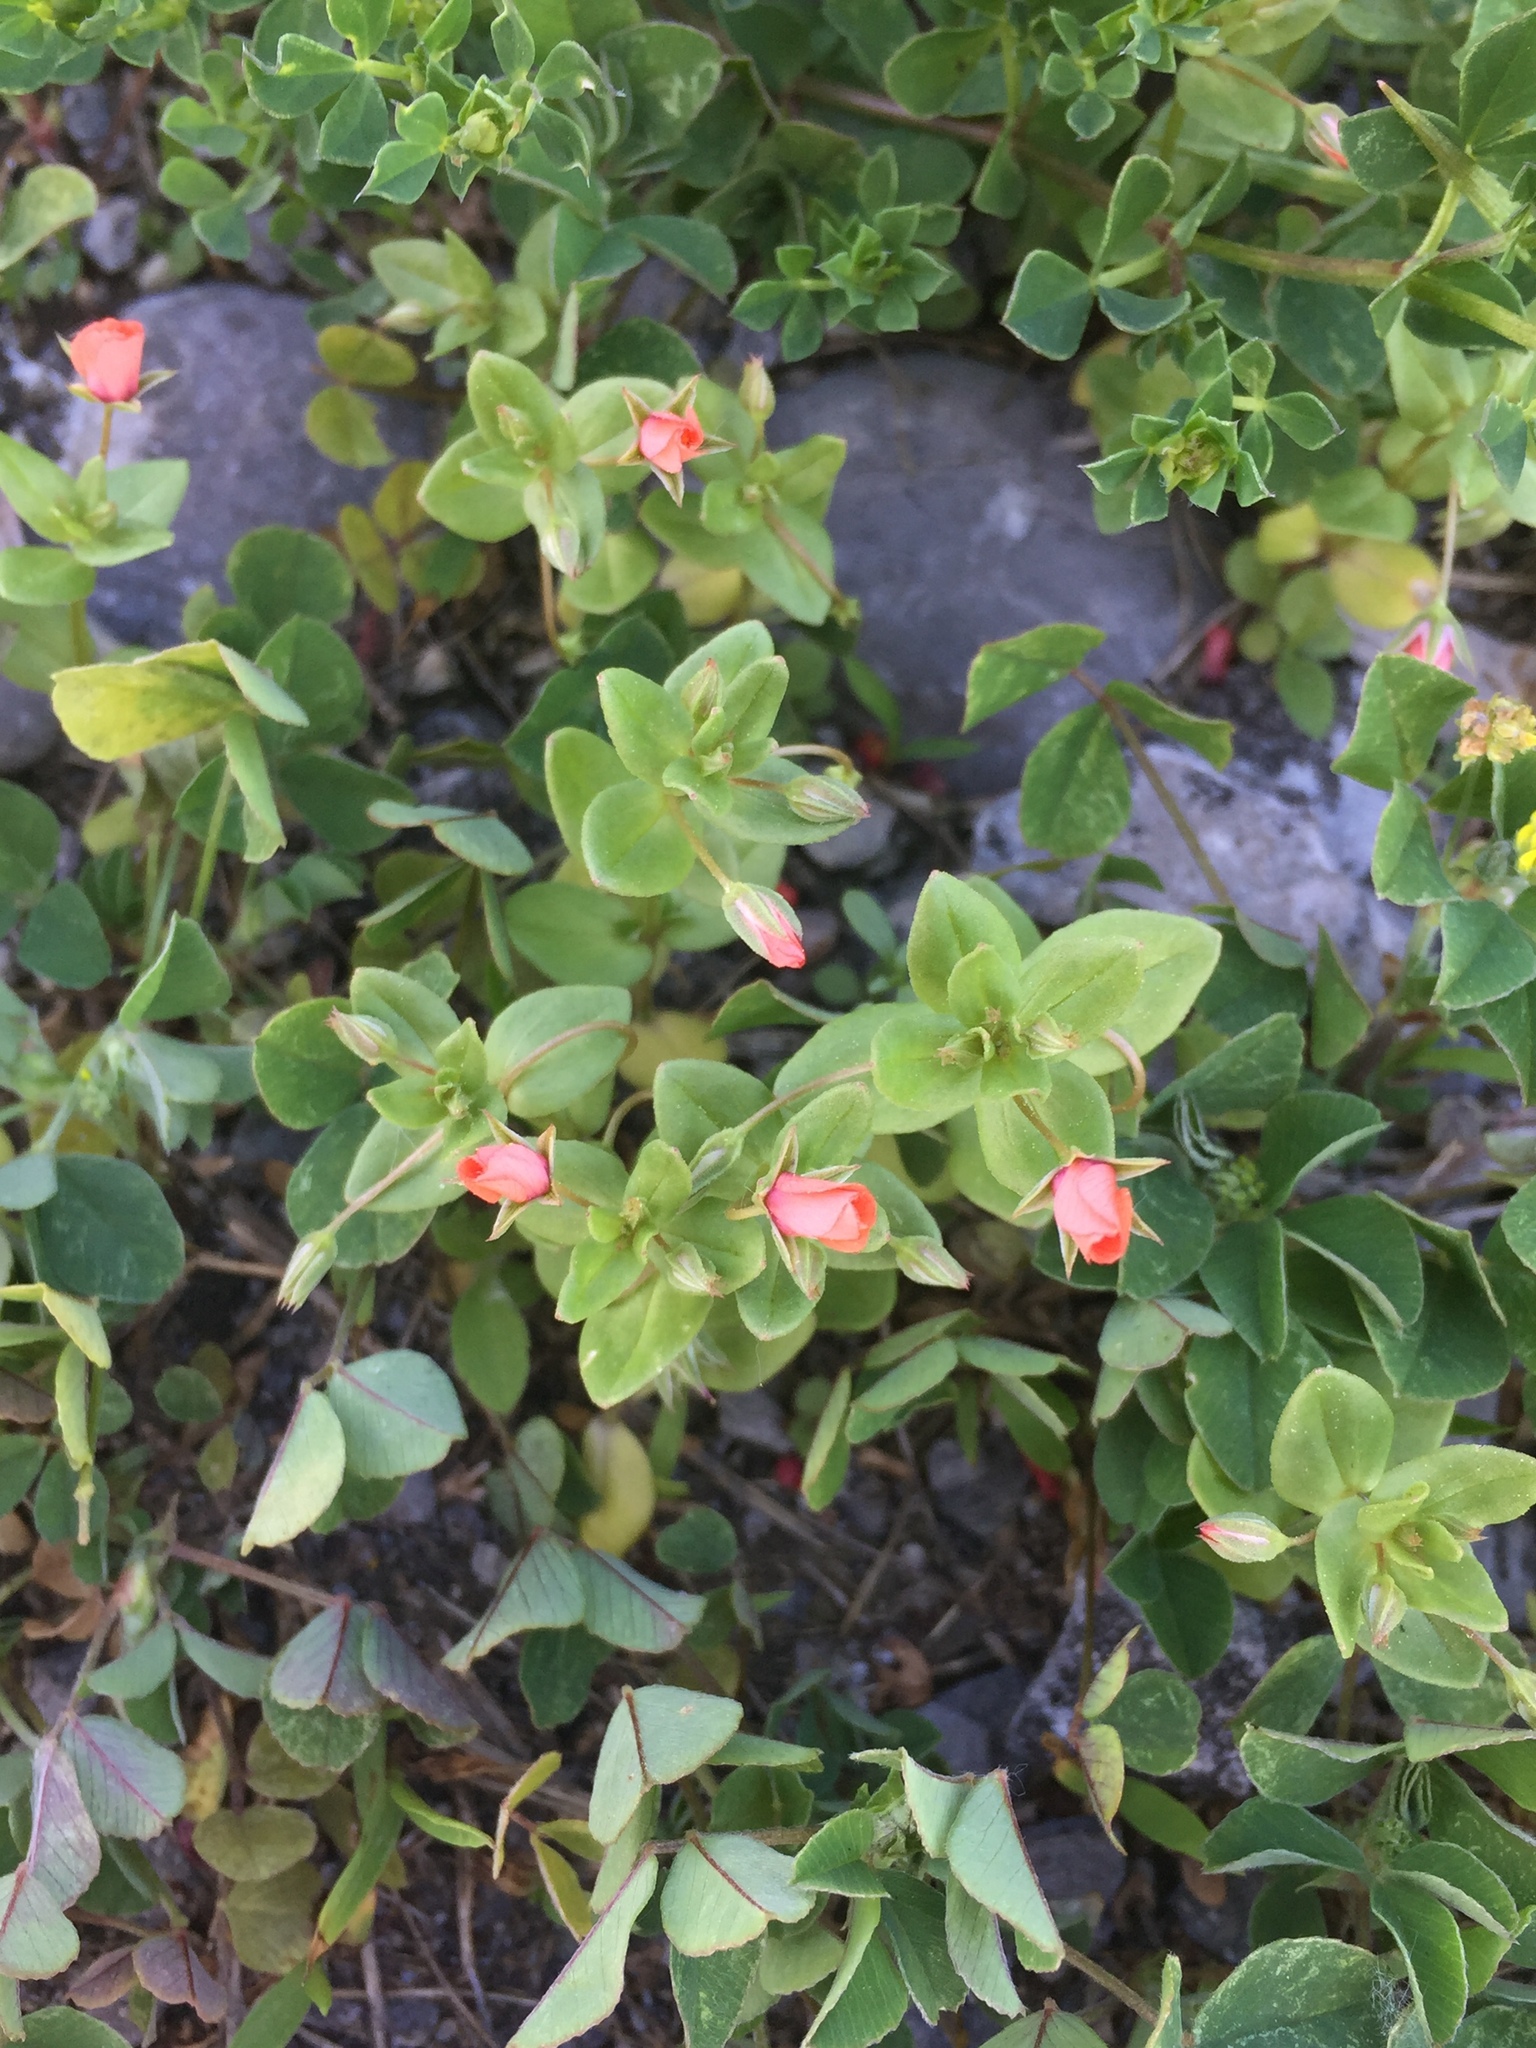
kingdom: Plantae
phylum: Tracheophyta
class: Magnoliopsida
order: Ericales
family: Primulaceae
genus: Lysimachia
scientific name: Lysimachia arvensis
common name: Scarlet pimpernel
